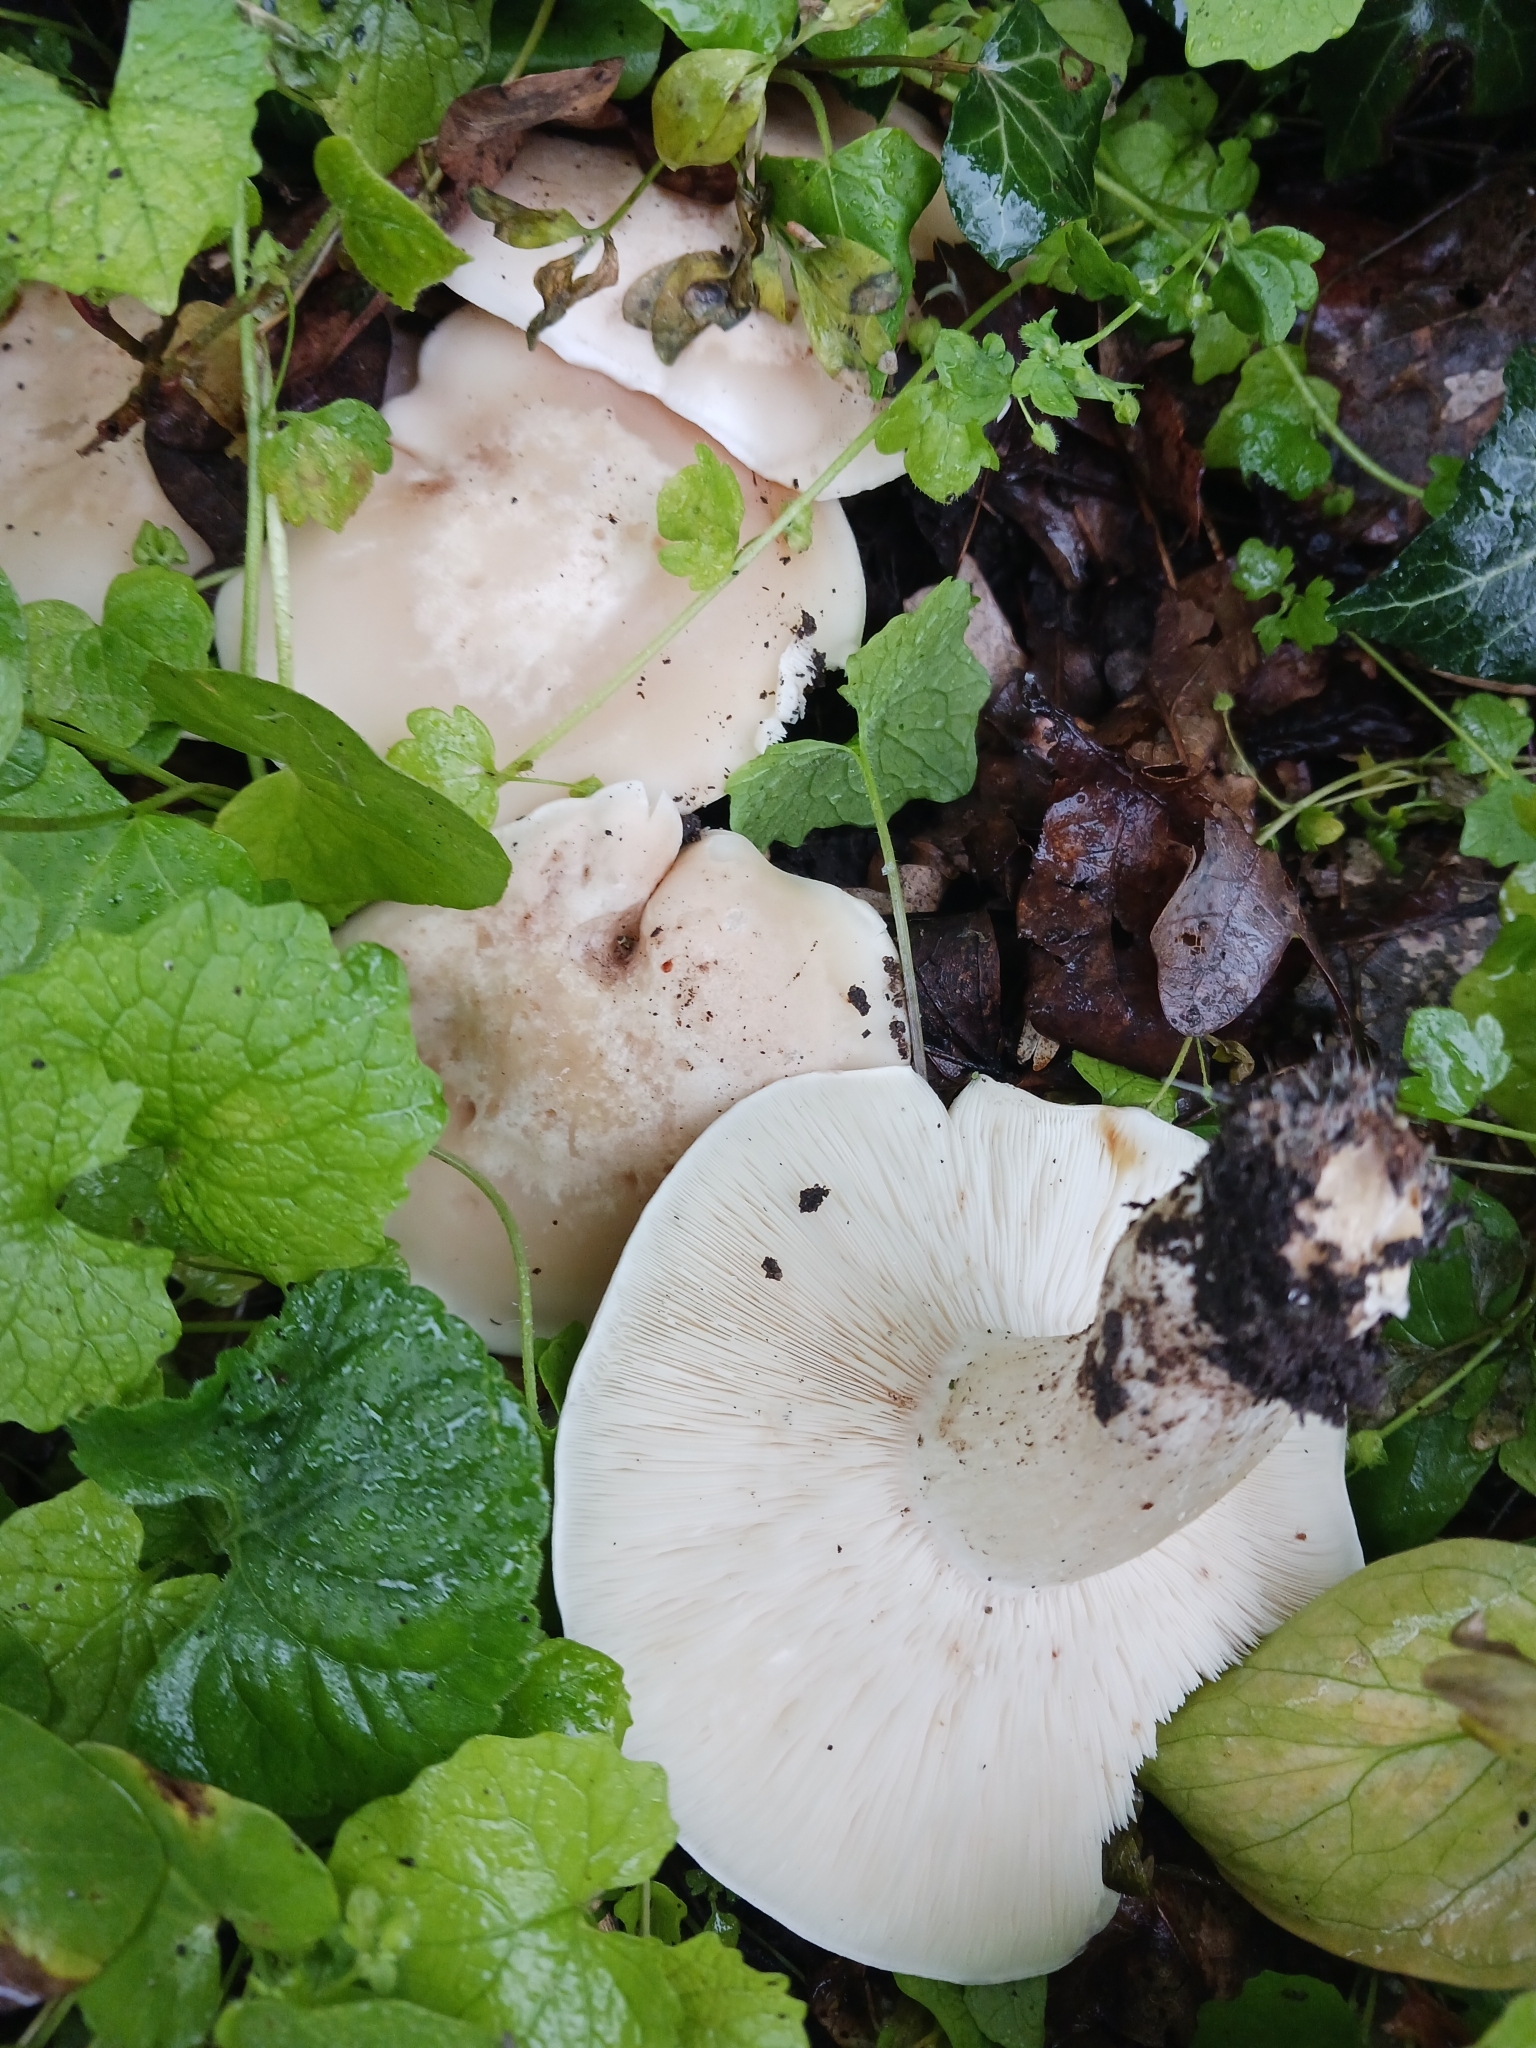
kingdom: Fungi
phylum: Basidiomycota
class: Agaricomycetes
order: Agaricales
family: Lyophyllaceae
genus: Calocybe
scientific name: Calocybe gambosa
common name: St. george's mushroom
